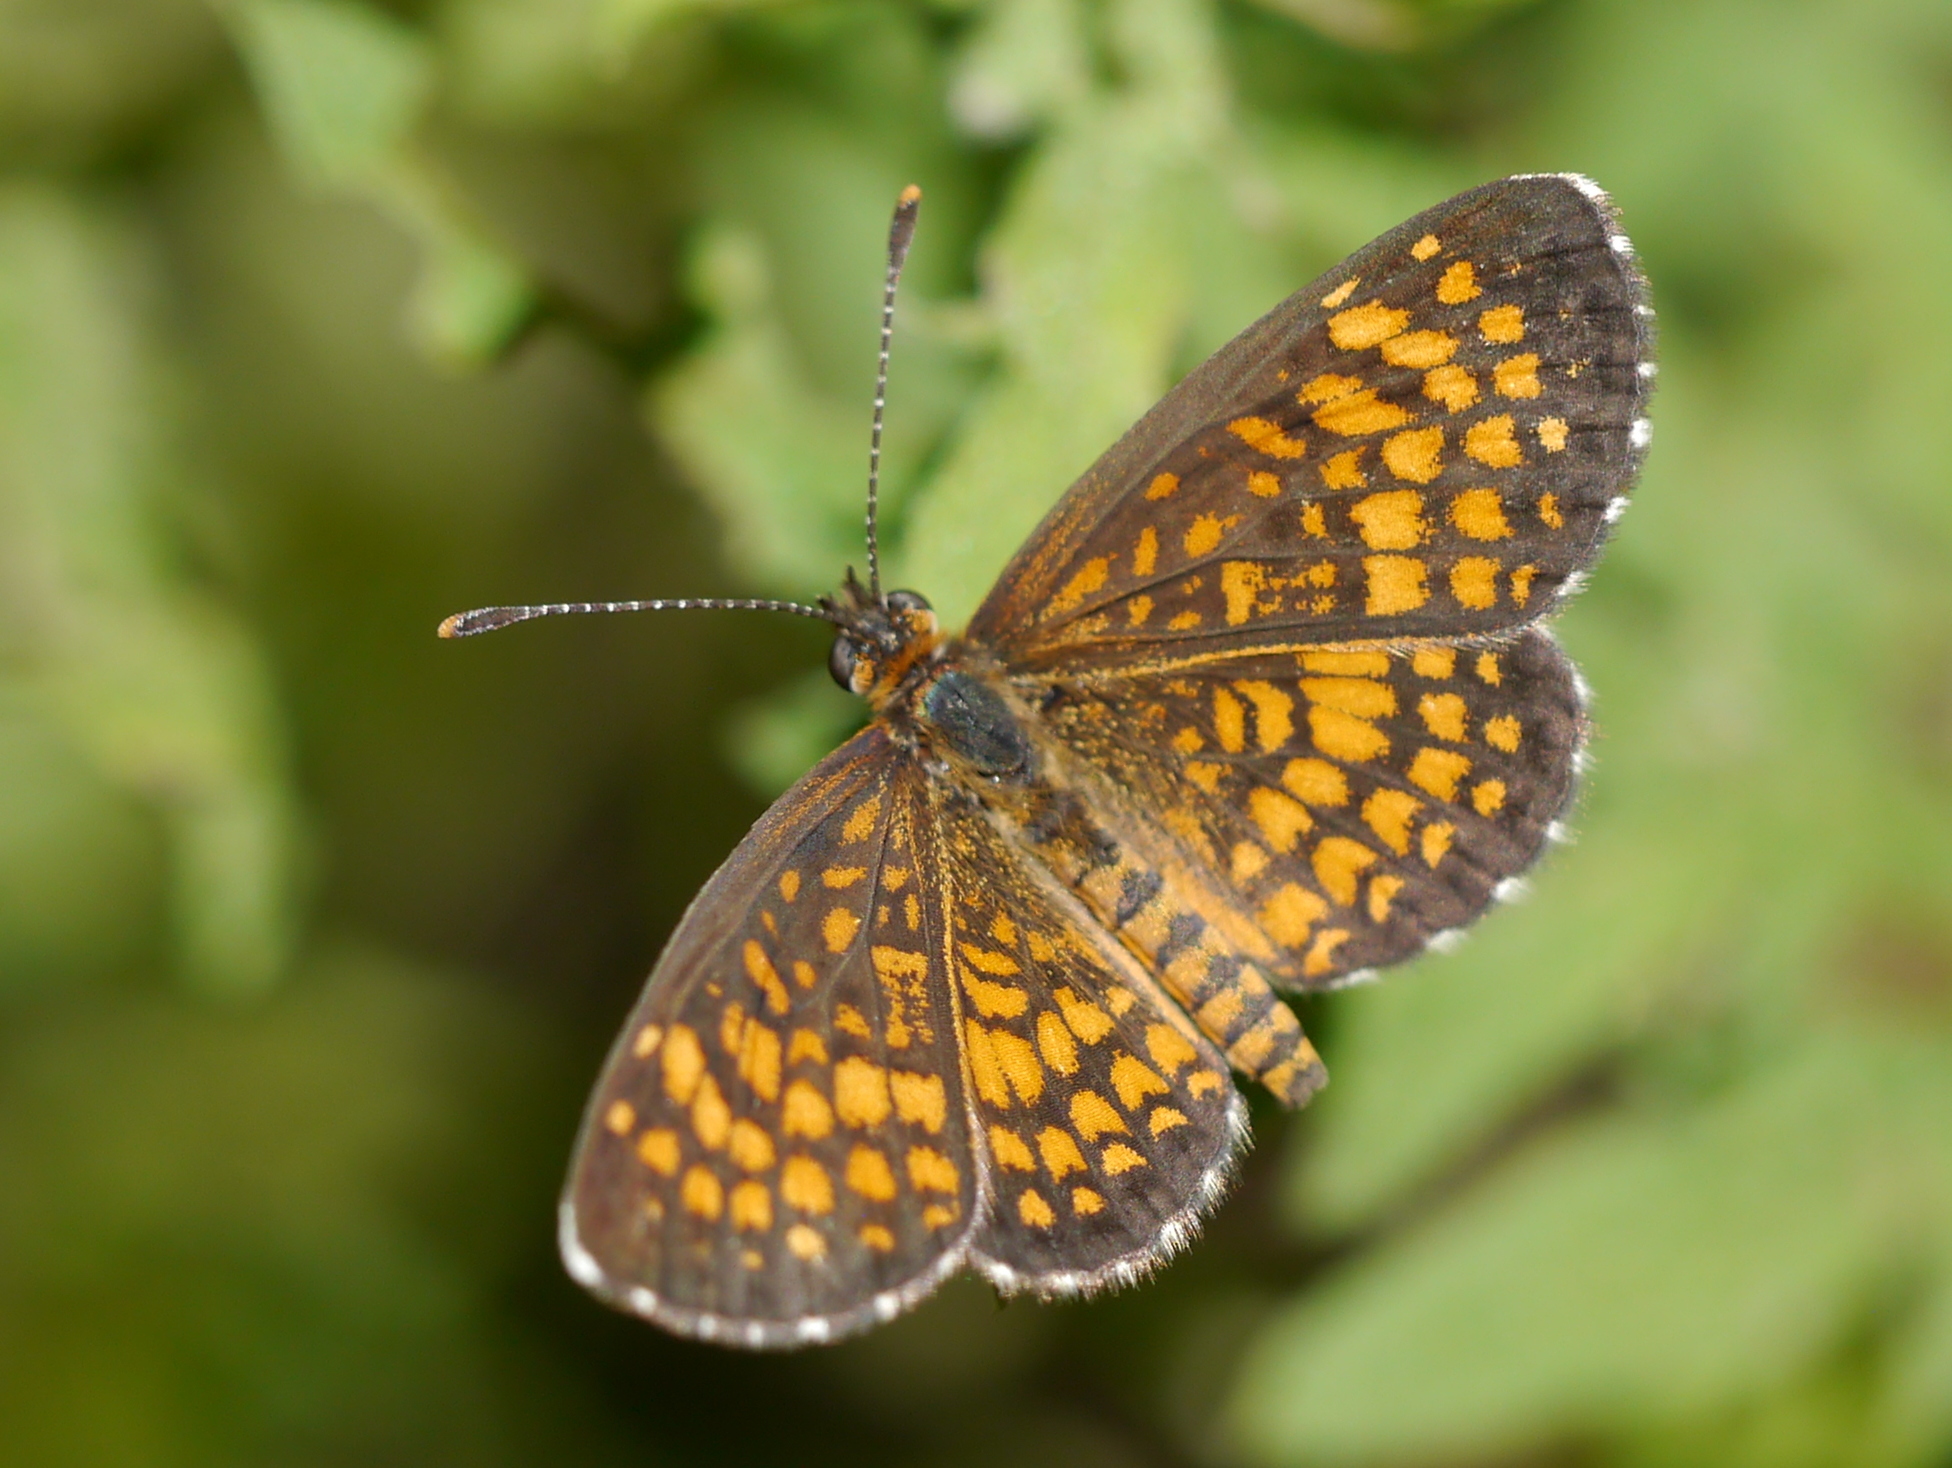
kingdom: Animalia
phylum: Arthropoda
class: Insecta
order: Lepidoptera
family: Nymphalidae
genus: Texola
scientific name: Texola
